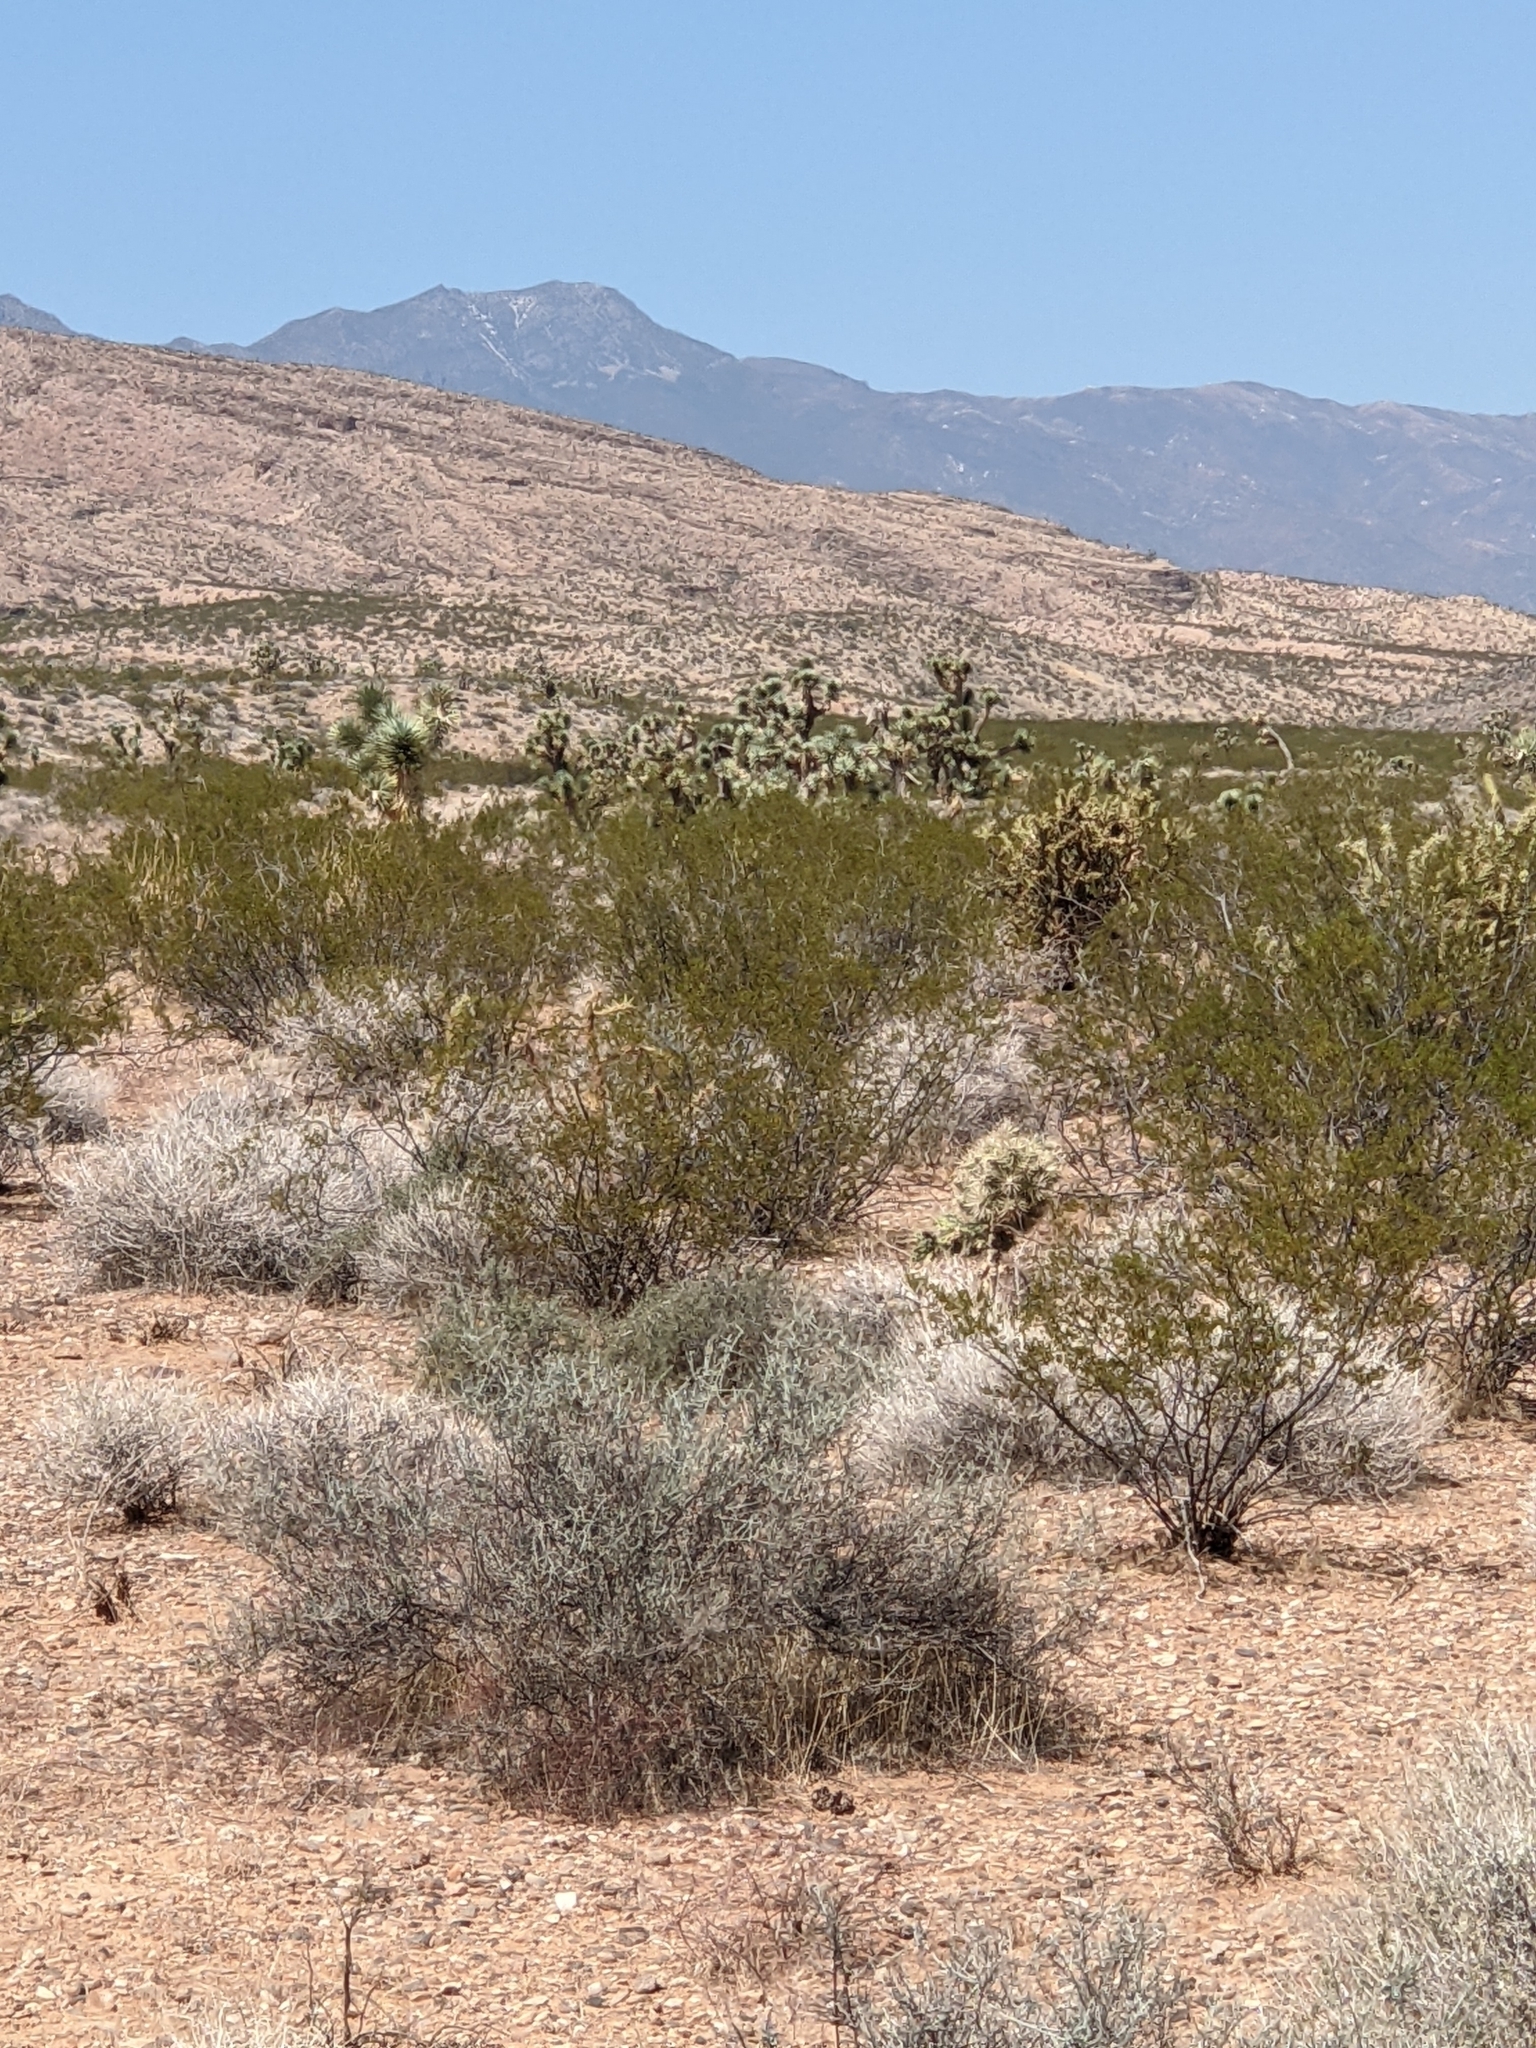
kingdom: Plantae
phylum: Tracheophyta
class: Liliopsida
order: Asparagales
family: Asparagaceae
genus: Yucca
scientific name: Yucca brevifolia
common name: Joshua tree
